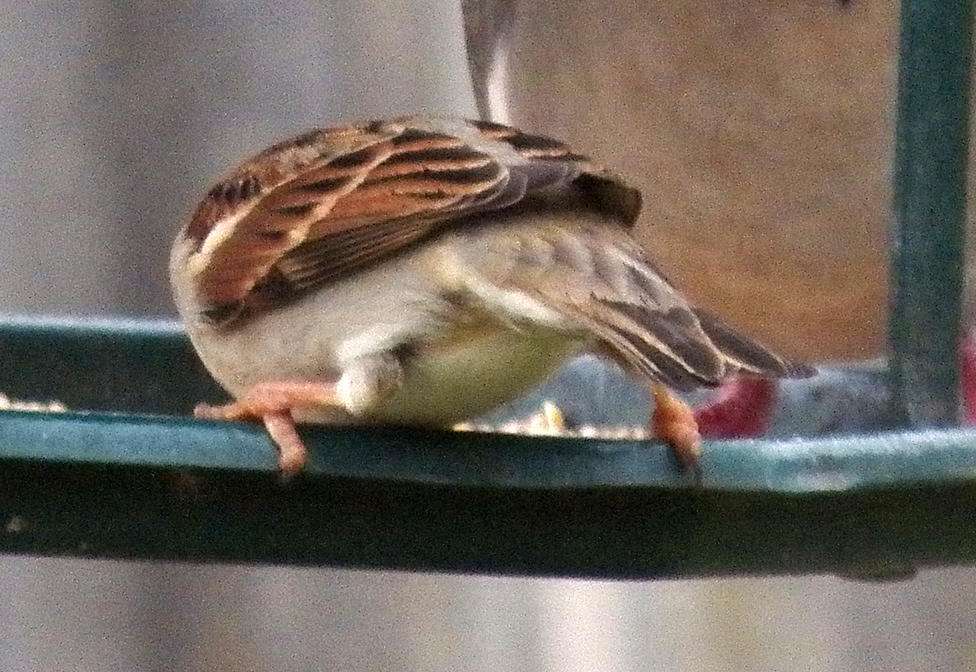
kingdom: Animalia
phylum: Chordata
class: Aves
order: Passeriformes
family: Passeridae
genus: Passer
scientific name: Passer domesticus
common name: House sparrow
